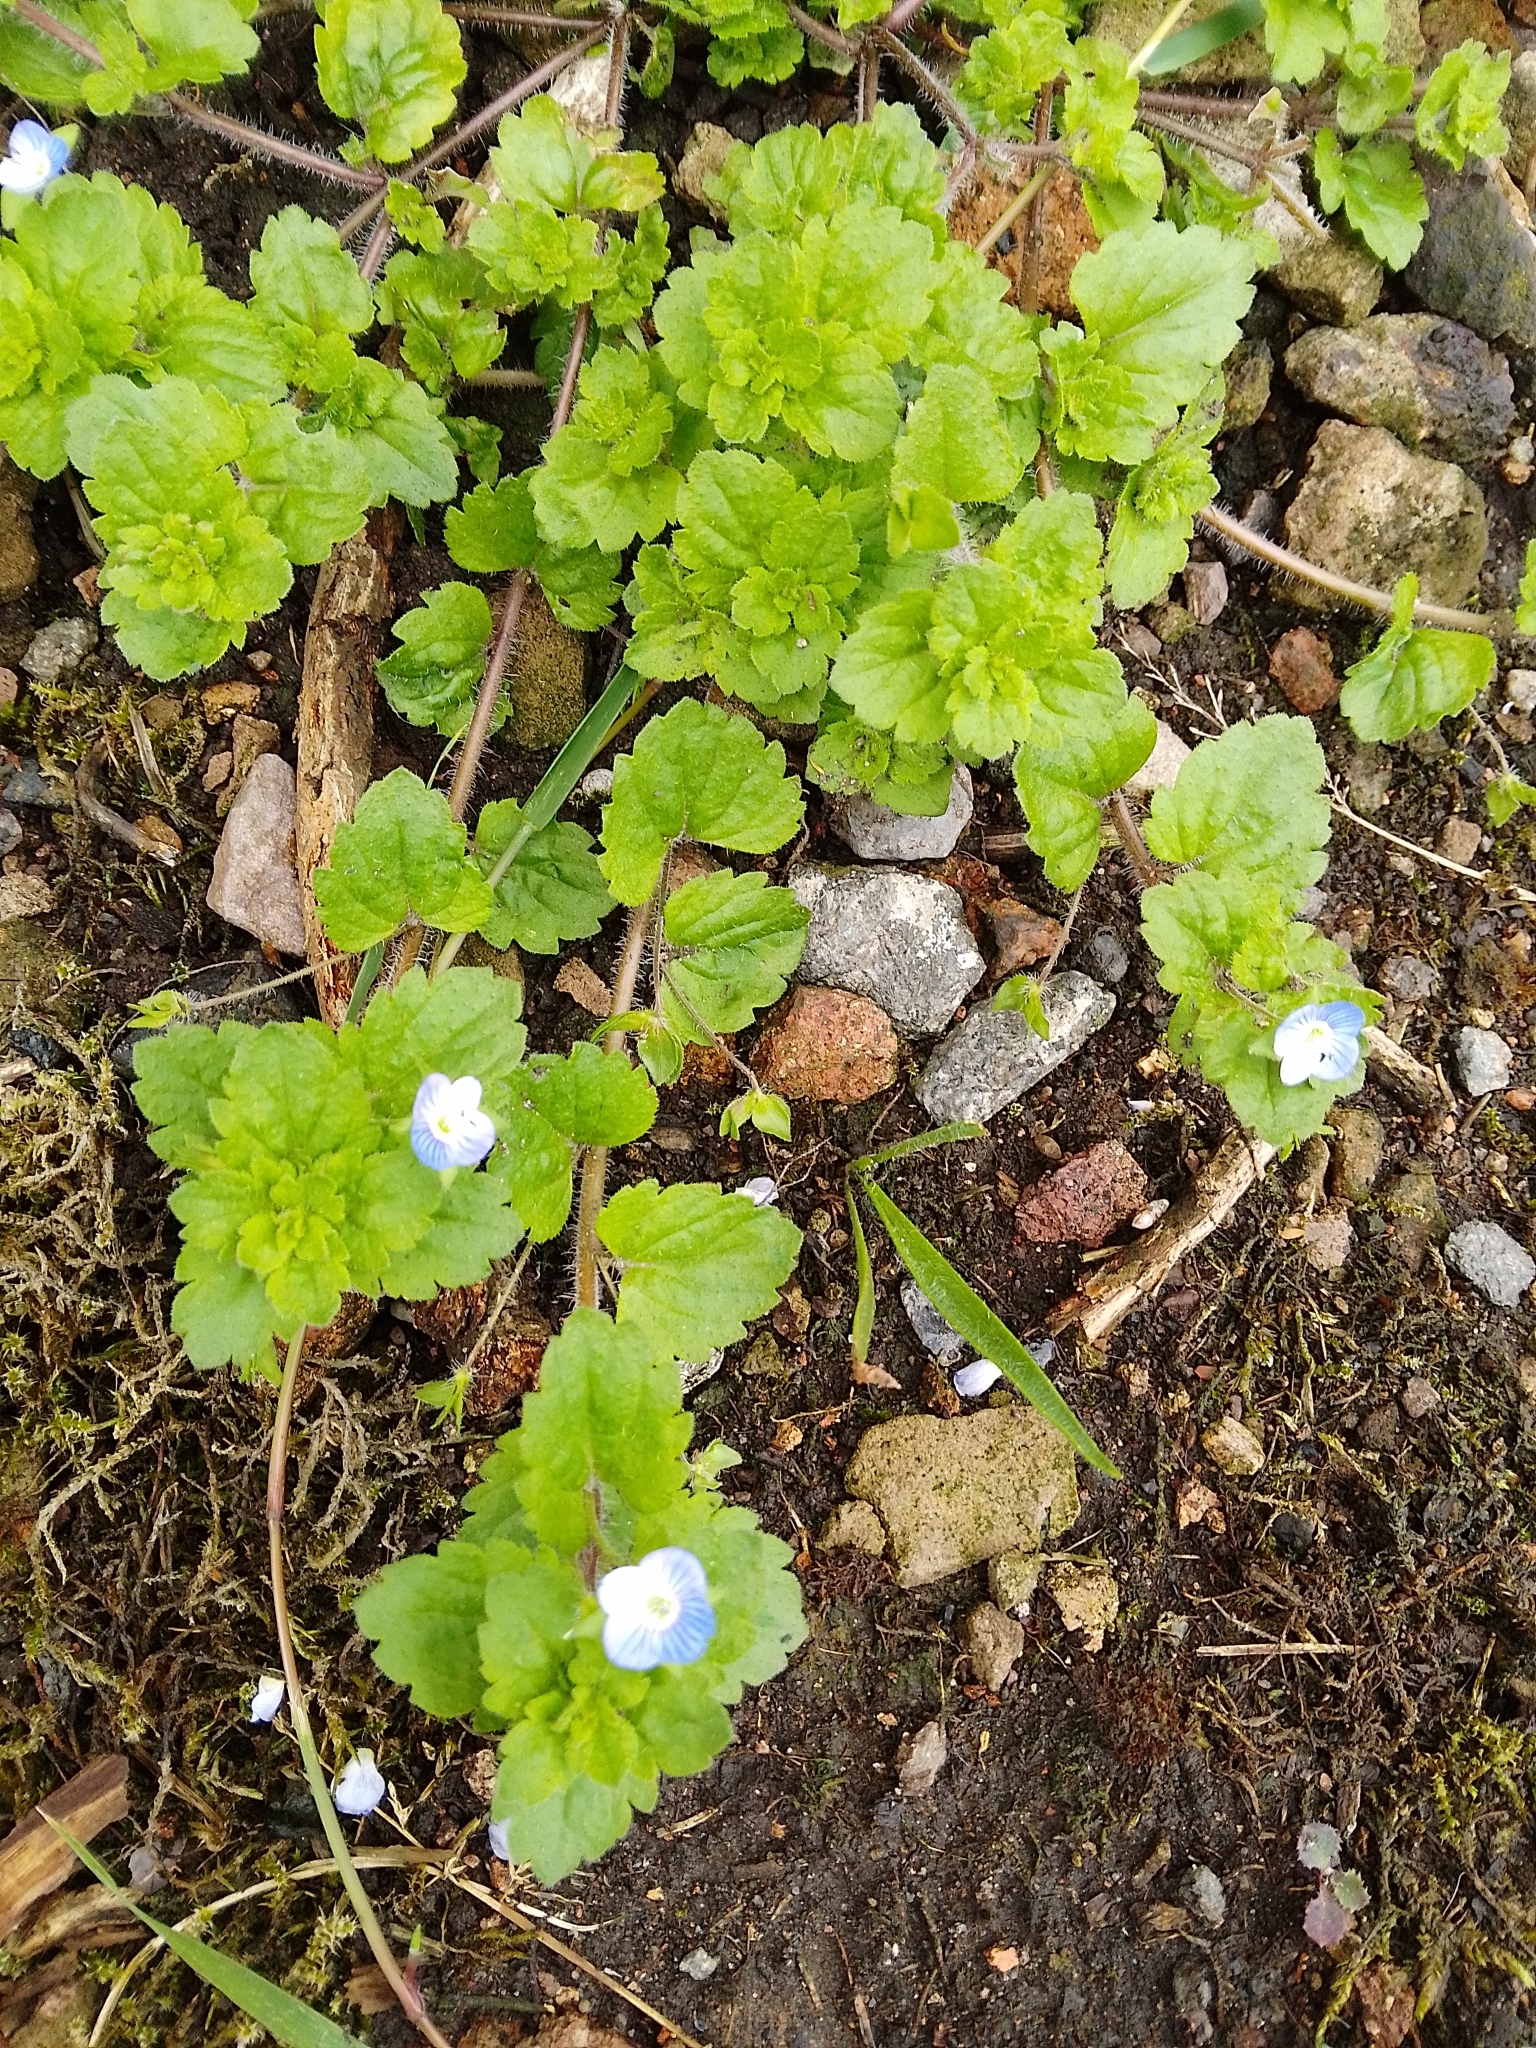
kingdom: Plantae
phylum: Tracheophyta
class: Magnoliopsida
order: Lamiales
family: Plantaginaceae
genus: Veronica
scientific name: Veronica persica
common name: Common field-speedwell
